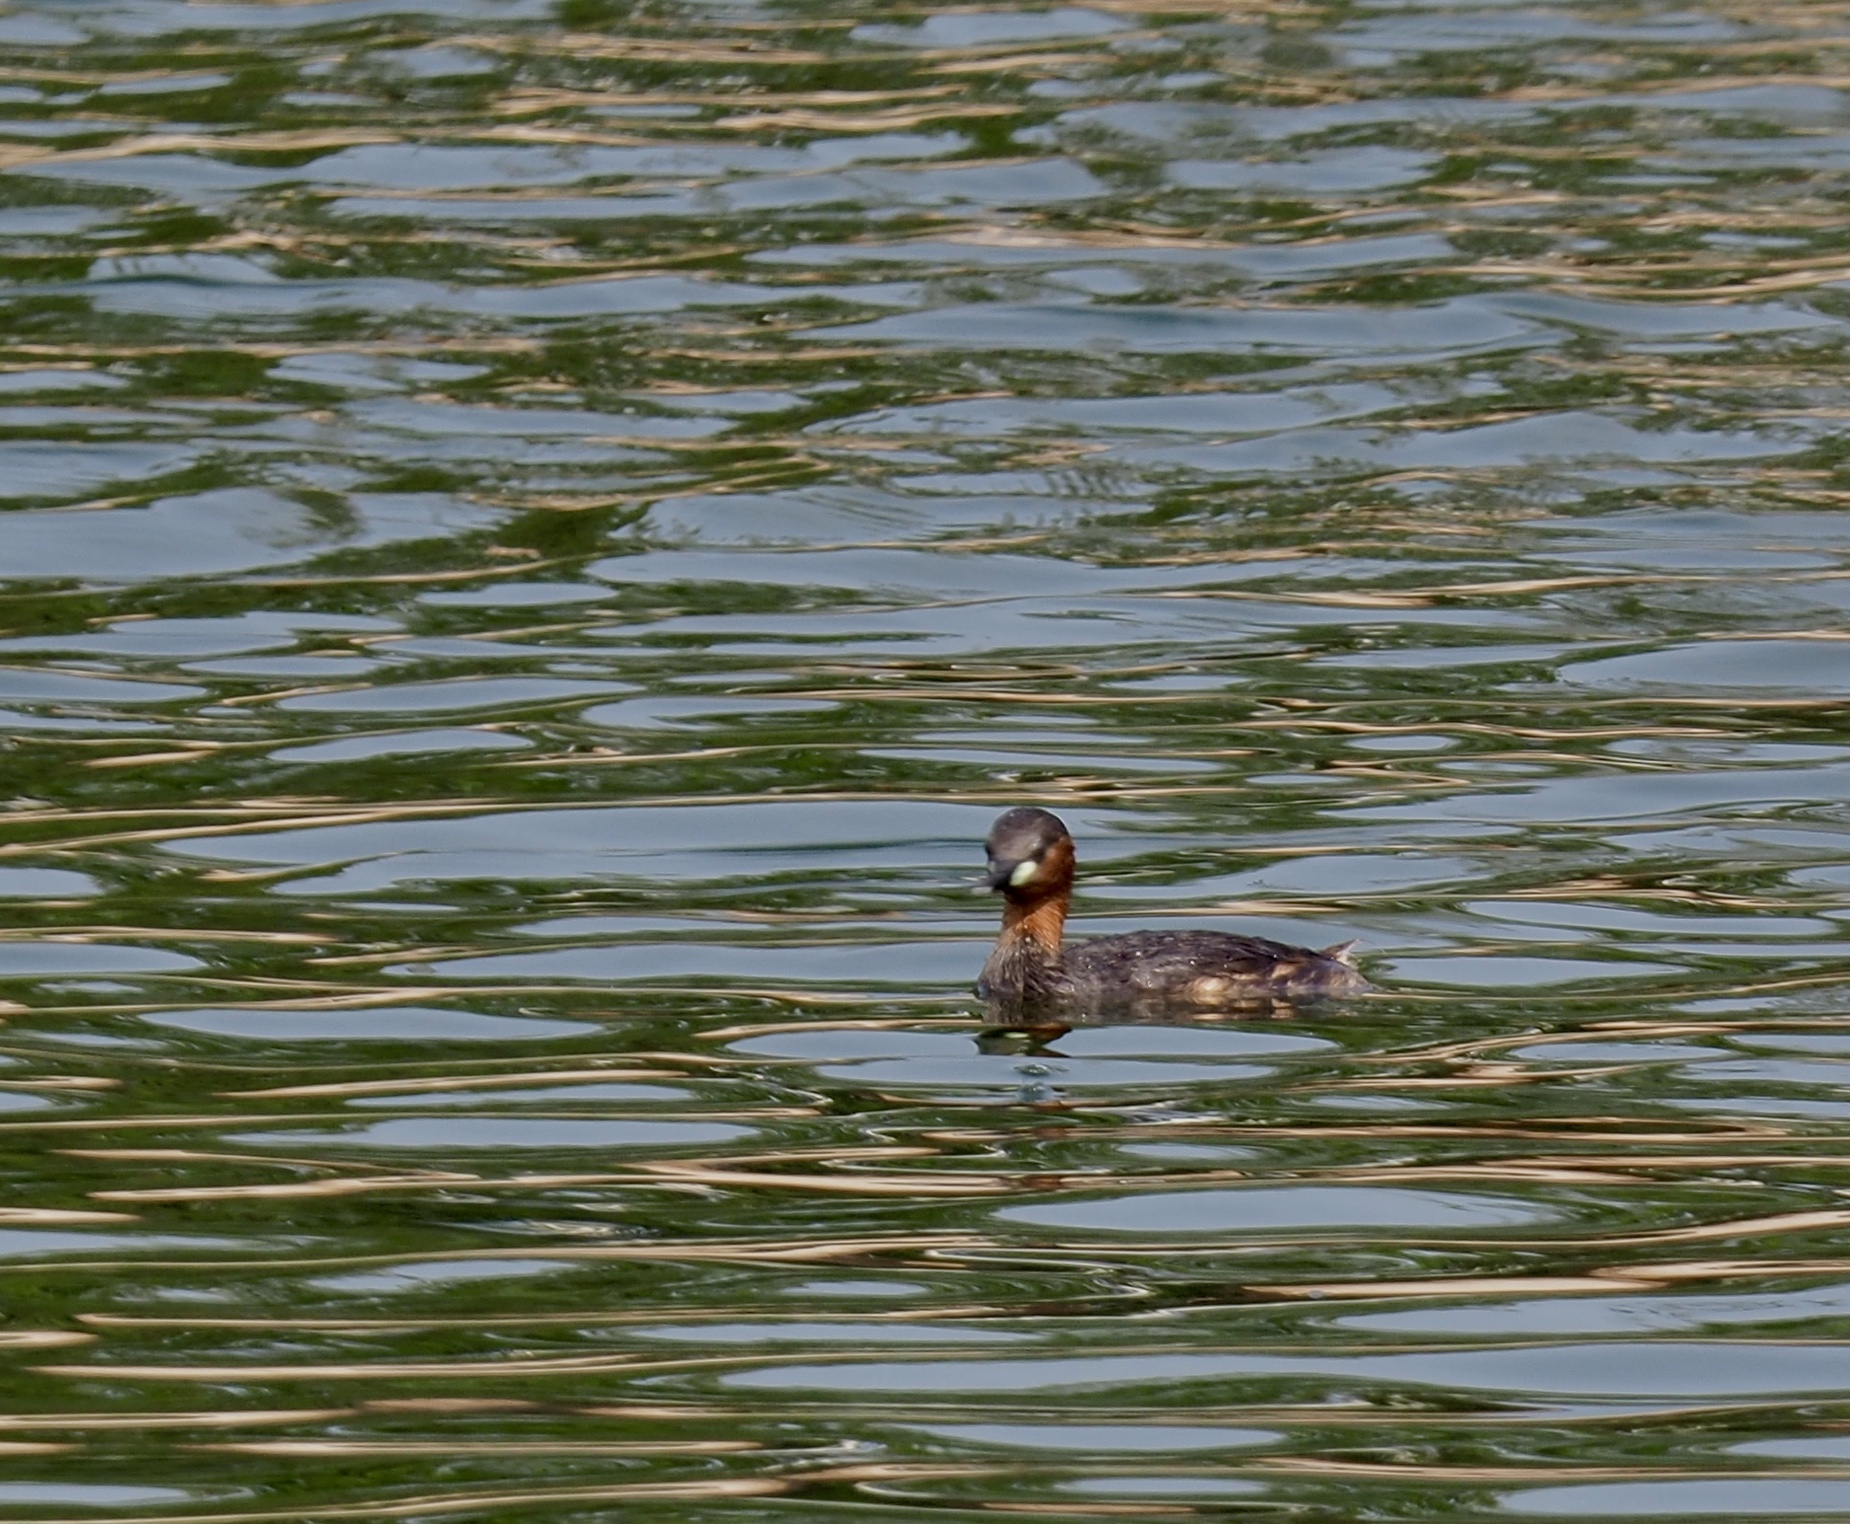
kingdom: Animalia
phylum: Chordata
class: Aves
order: Podicipediformes
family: Podicipedidae
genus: Tachybaptus
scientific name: Tachybaptus ruficollis
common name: Little grebe
